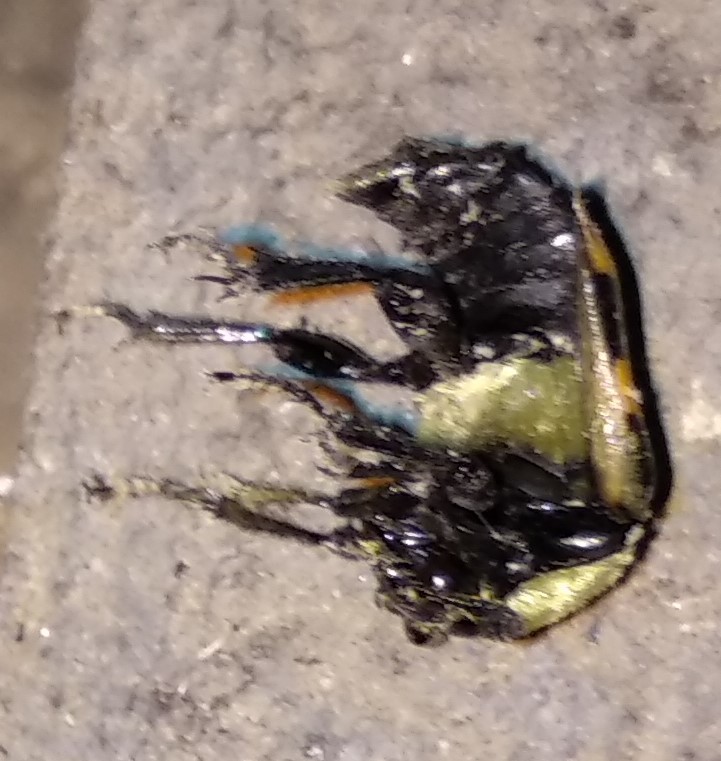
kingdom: Animalia
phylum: Arthropoda
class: Insecta
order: Coleoptera
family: Staphylinidae
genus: Nicrophorus
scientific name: Nicrophorus tomentosus
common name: Tomentose burying beetle
